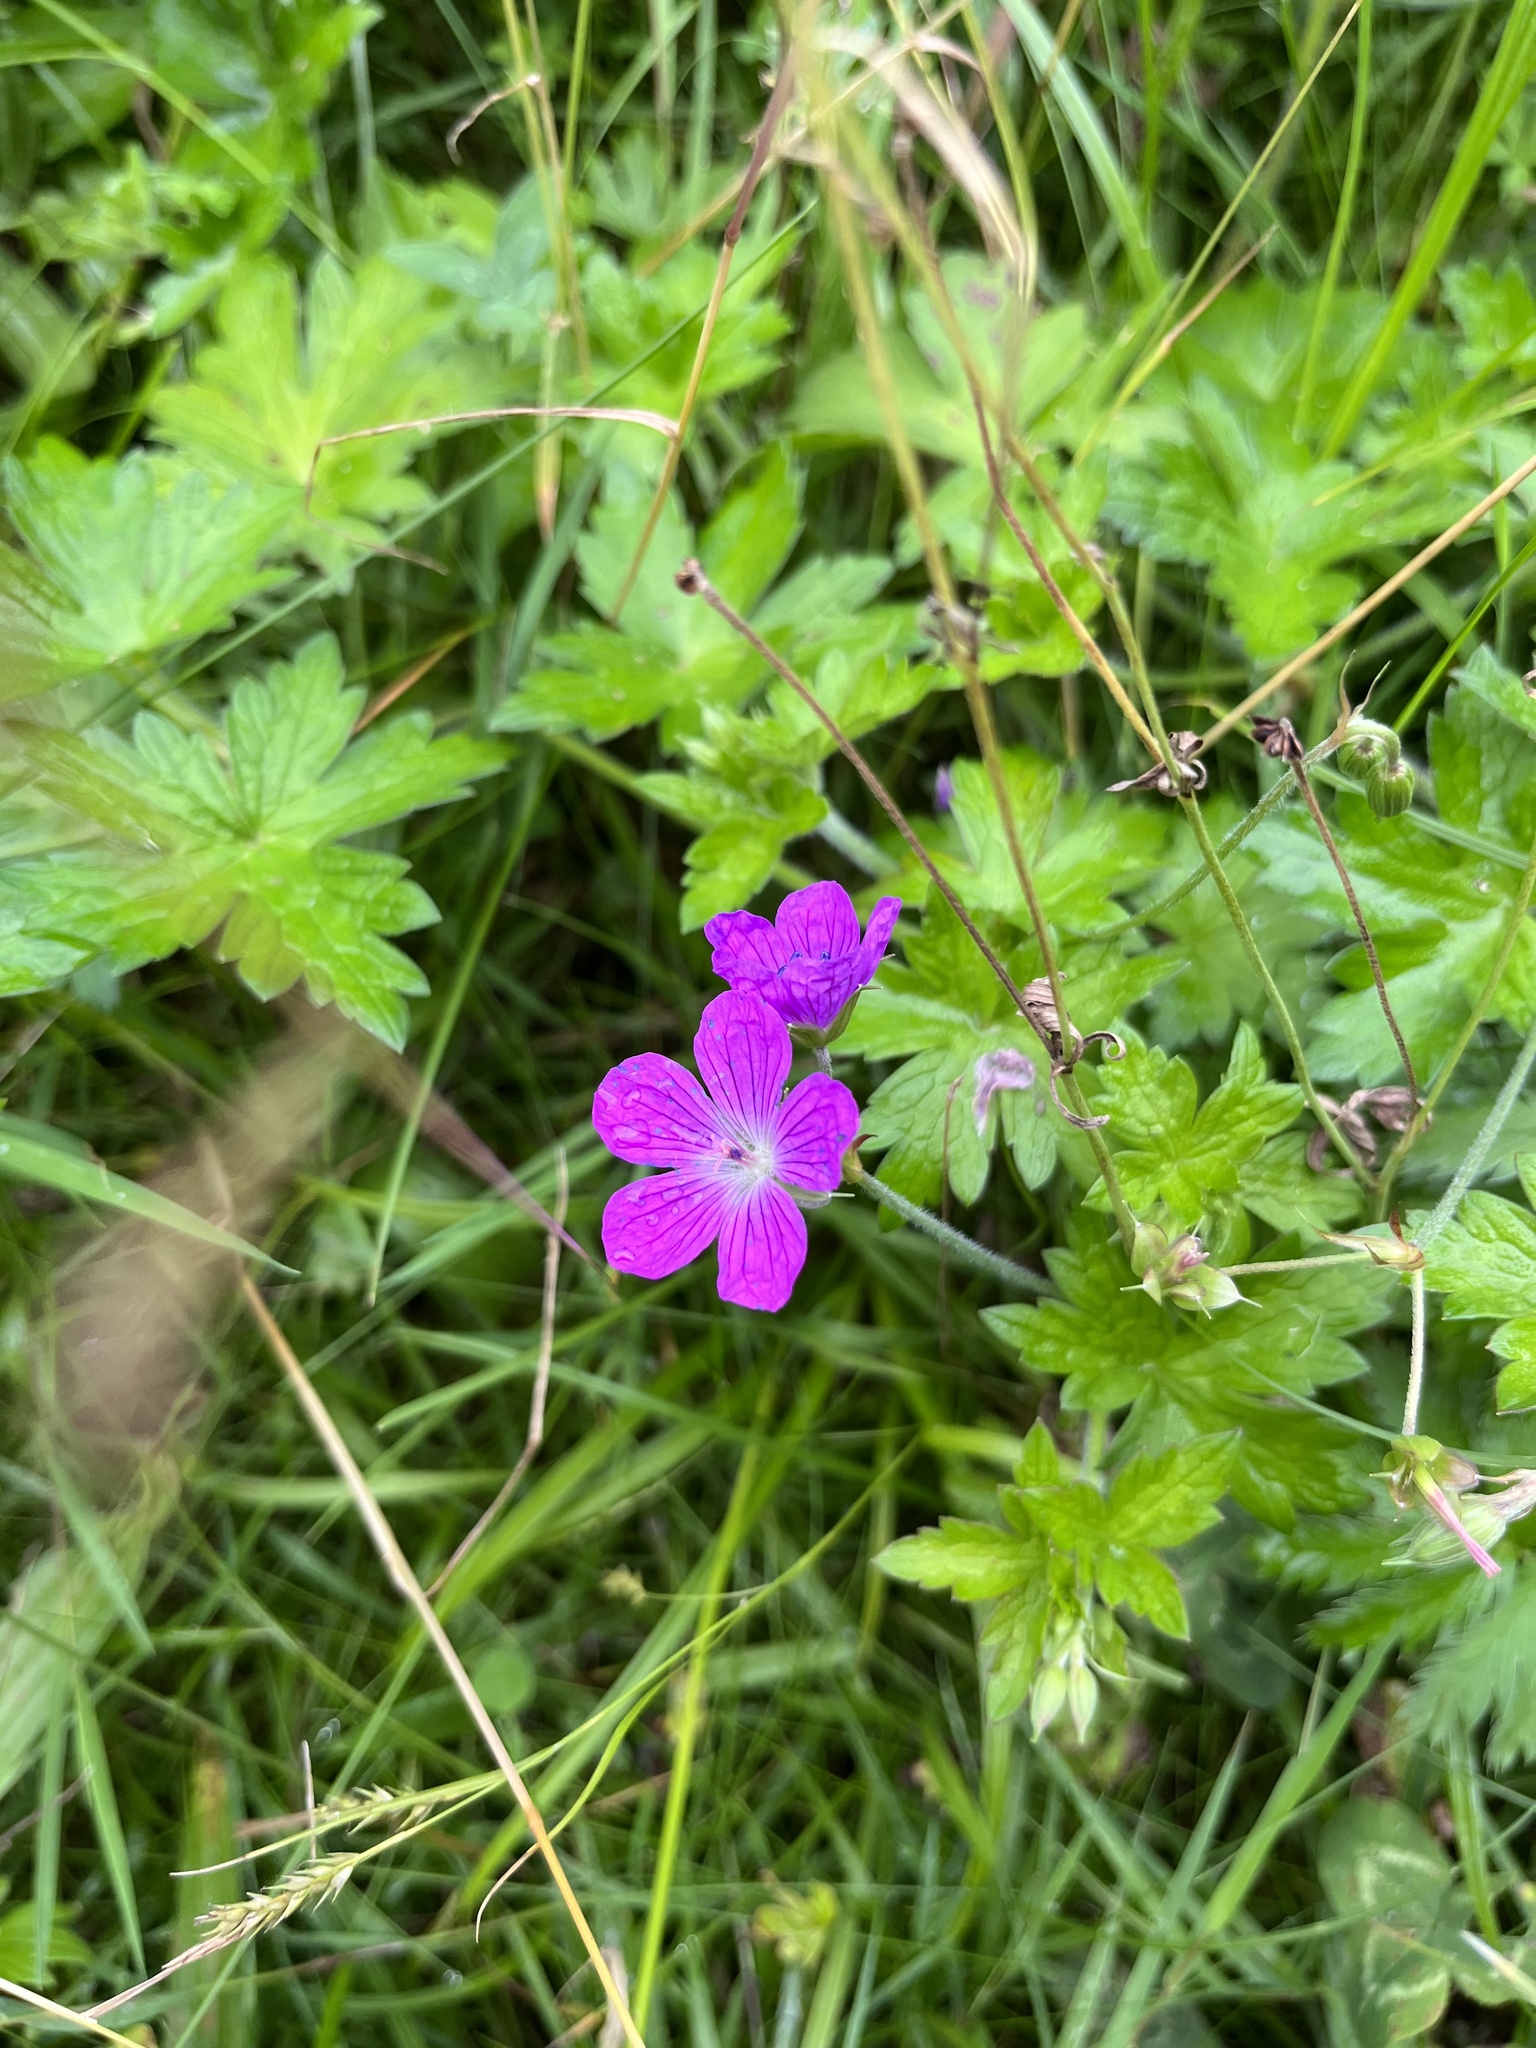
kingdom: Plantae
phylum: Tracheophyta
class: Magnoliopsida
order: Geraniales
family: Geraniaceae
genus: Geranium
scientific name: Geranium palustre
